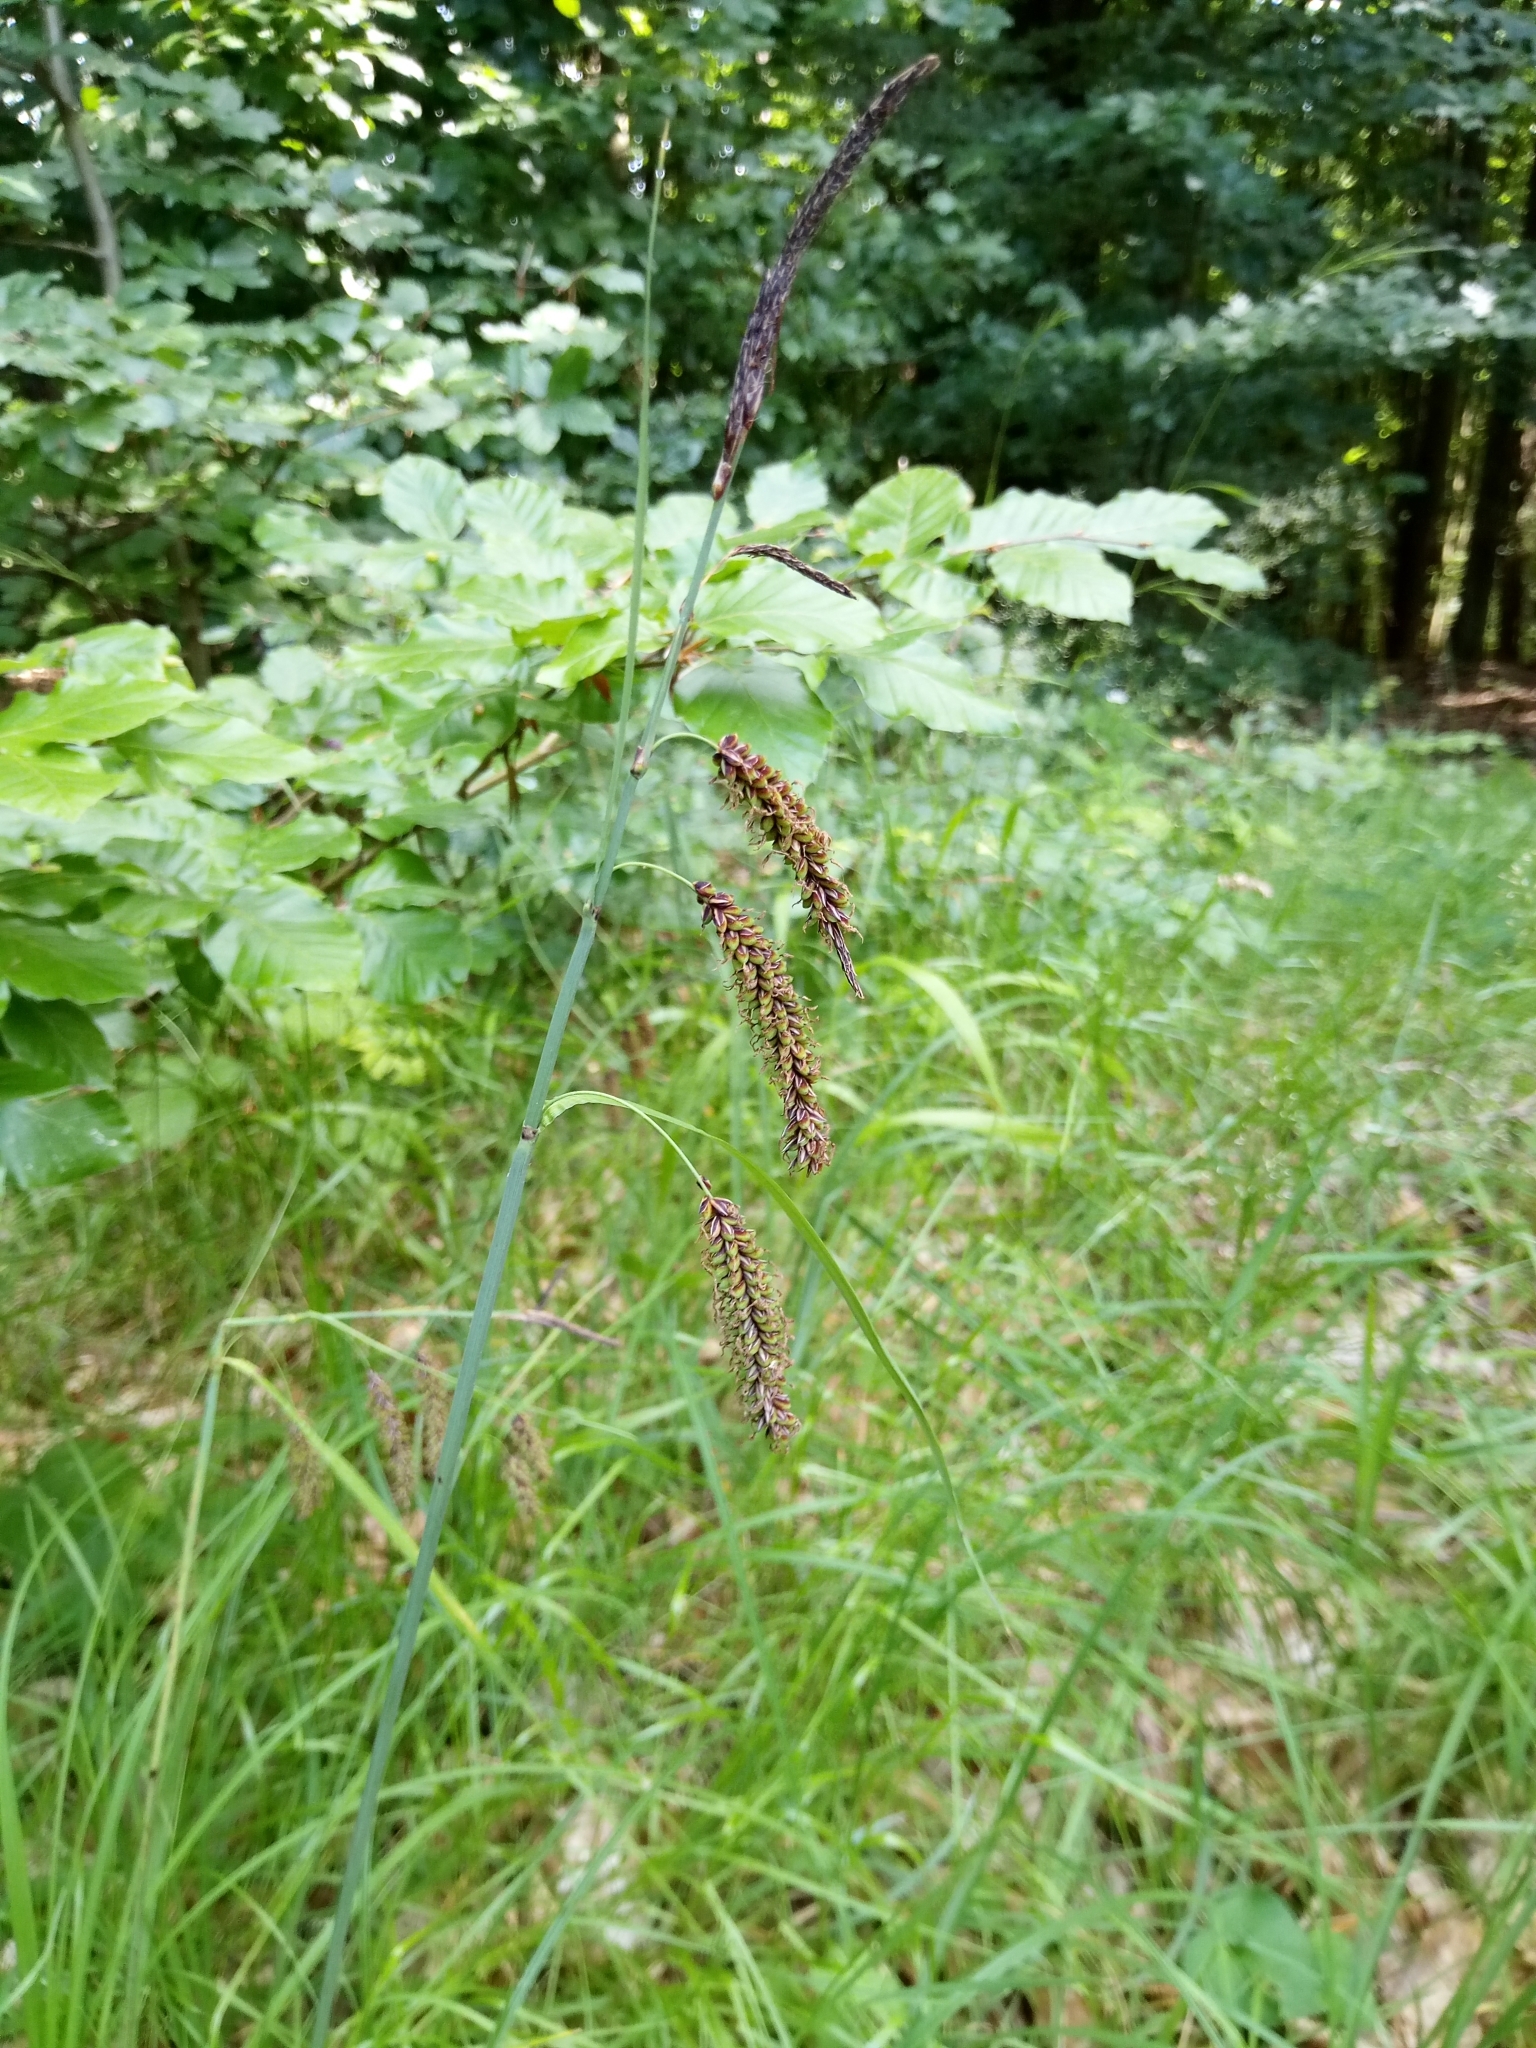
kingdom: Plantae
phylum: Tracheophyta
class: Liliopsida
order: Poales
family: Cyperaceae
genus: Carex
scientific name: Carex flacca
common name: Glaucous sedge
